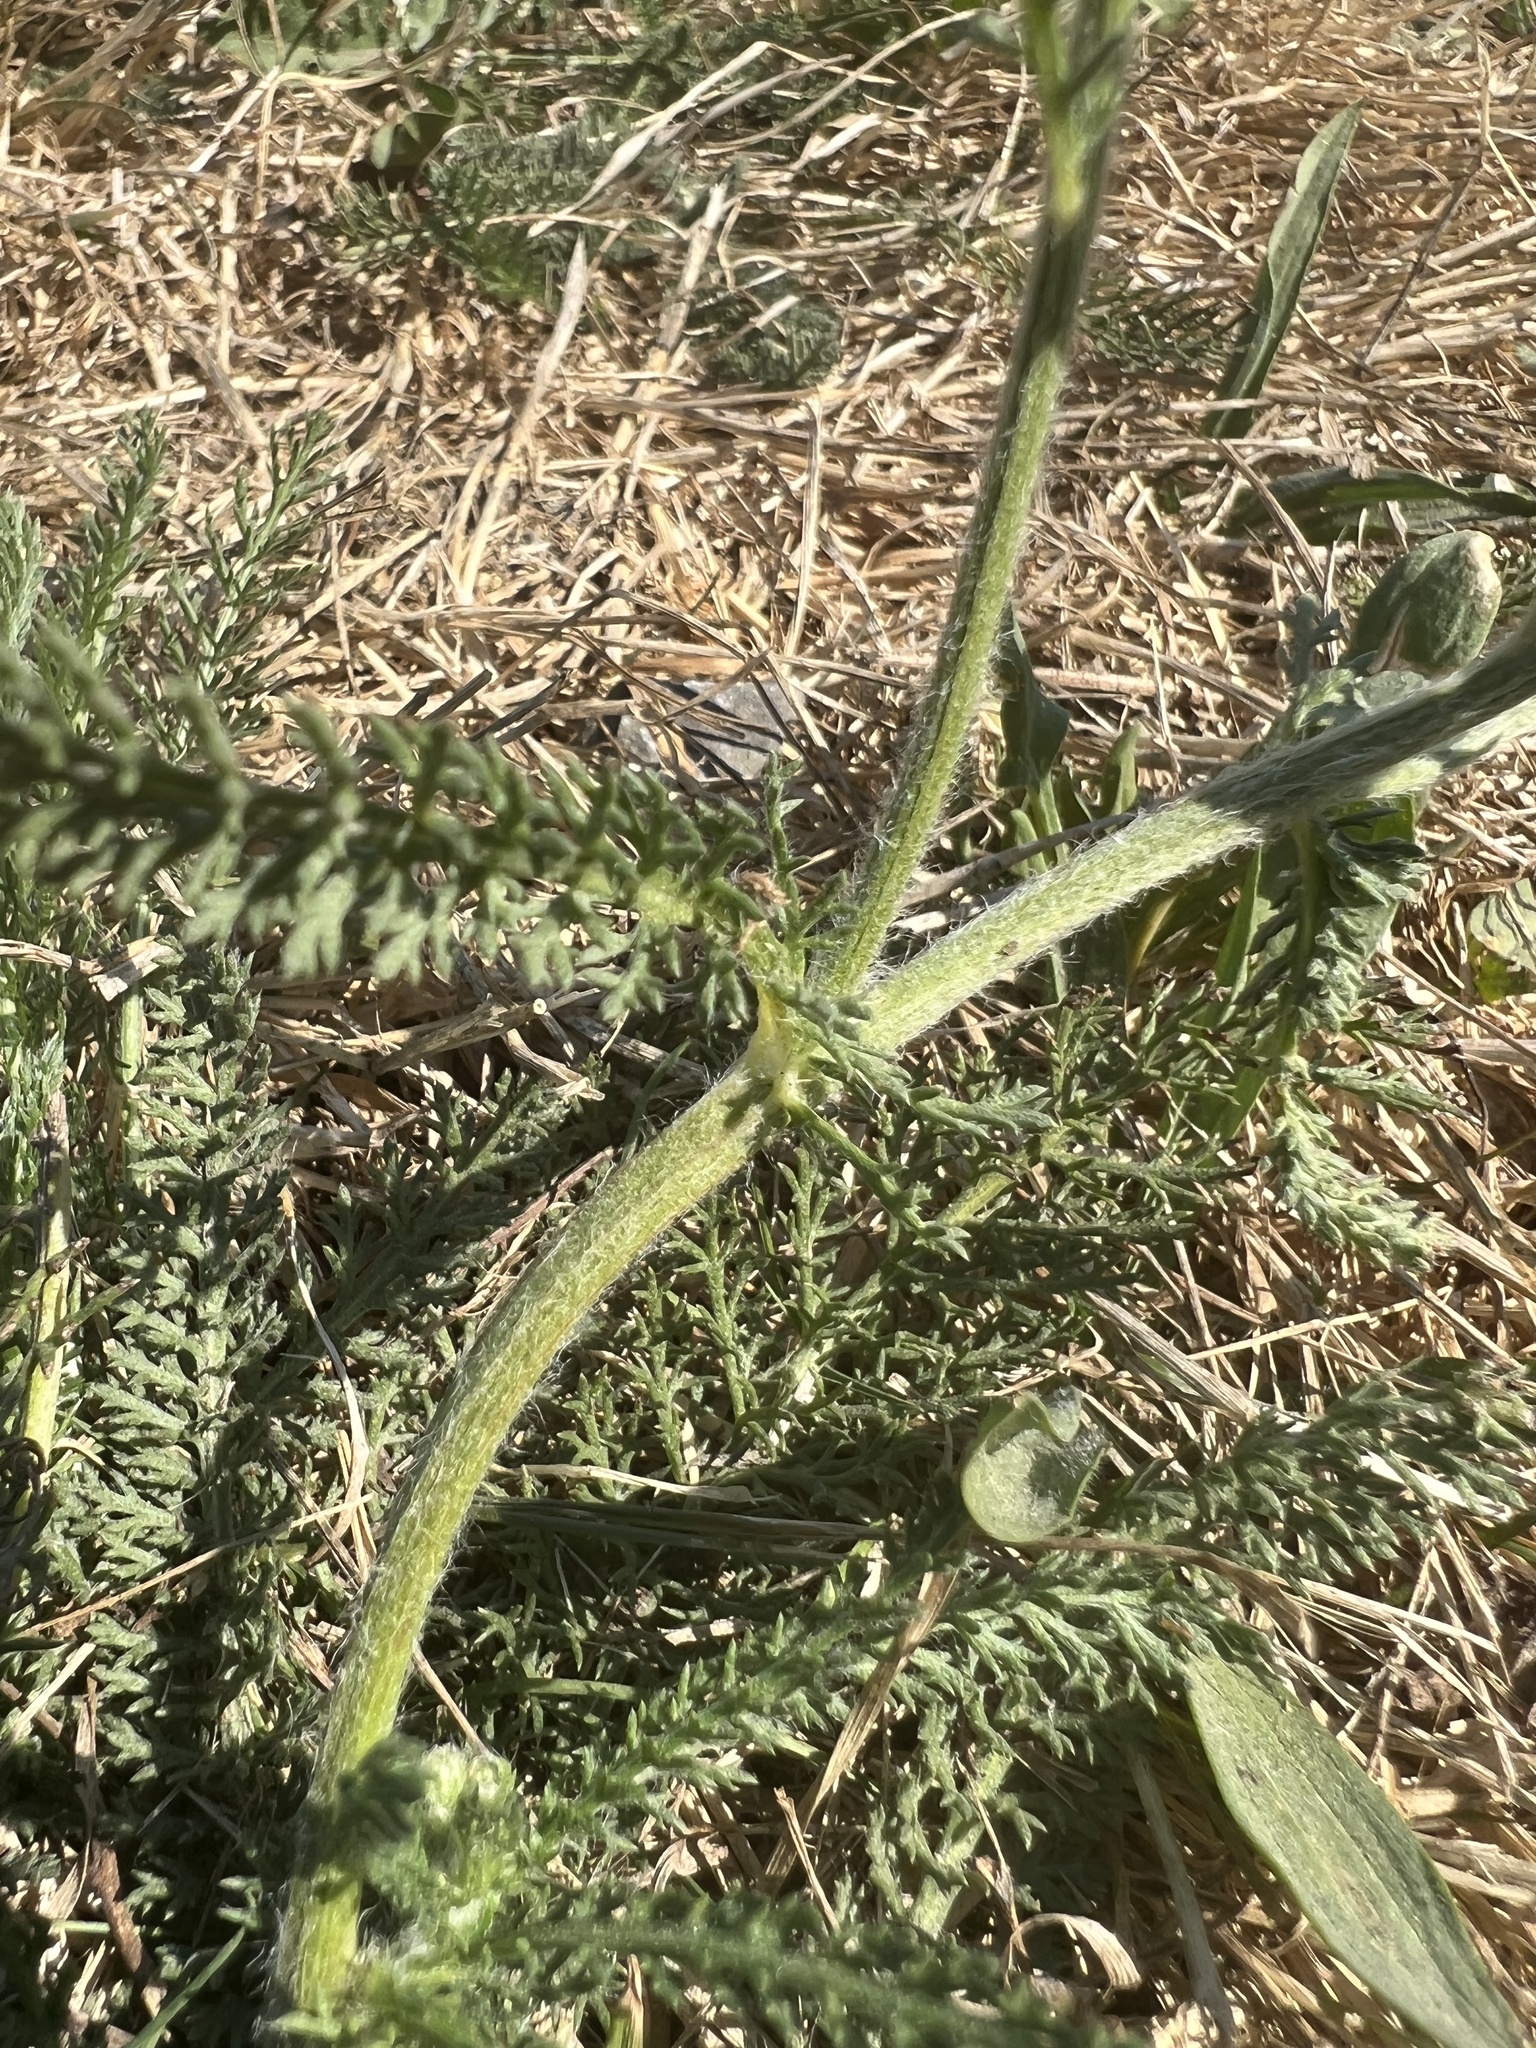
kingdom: Plantae
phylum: Tracheophyta
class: Magnoliopsida
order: Asterales
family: Asteraceae
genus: Achillea
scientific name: Achillea millefolium
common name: Yarrow
